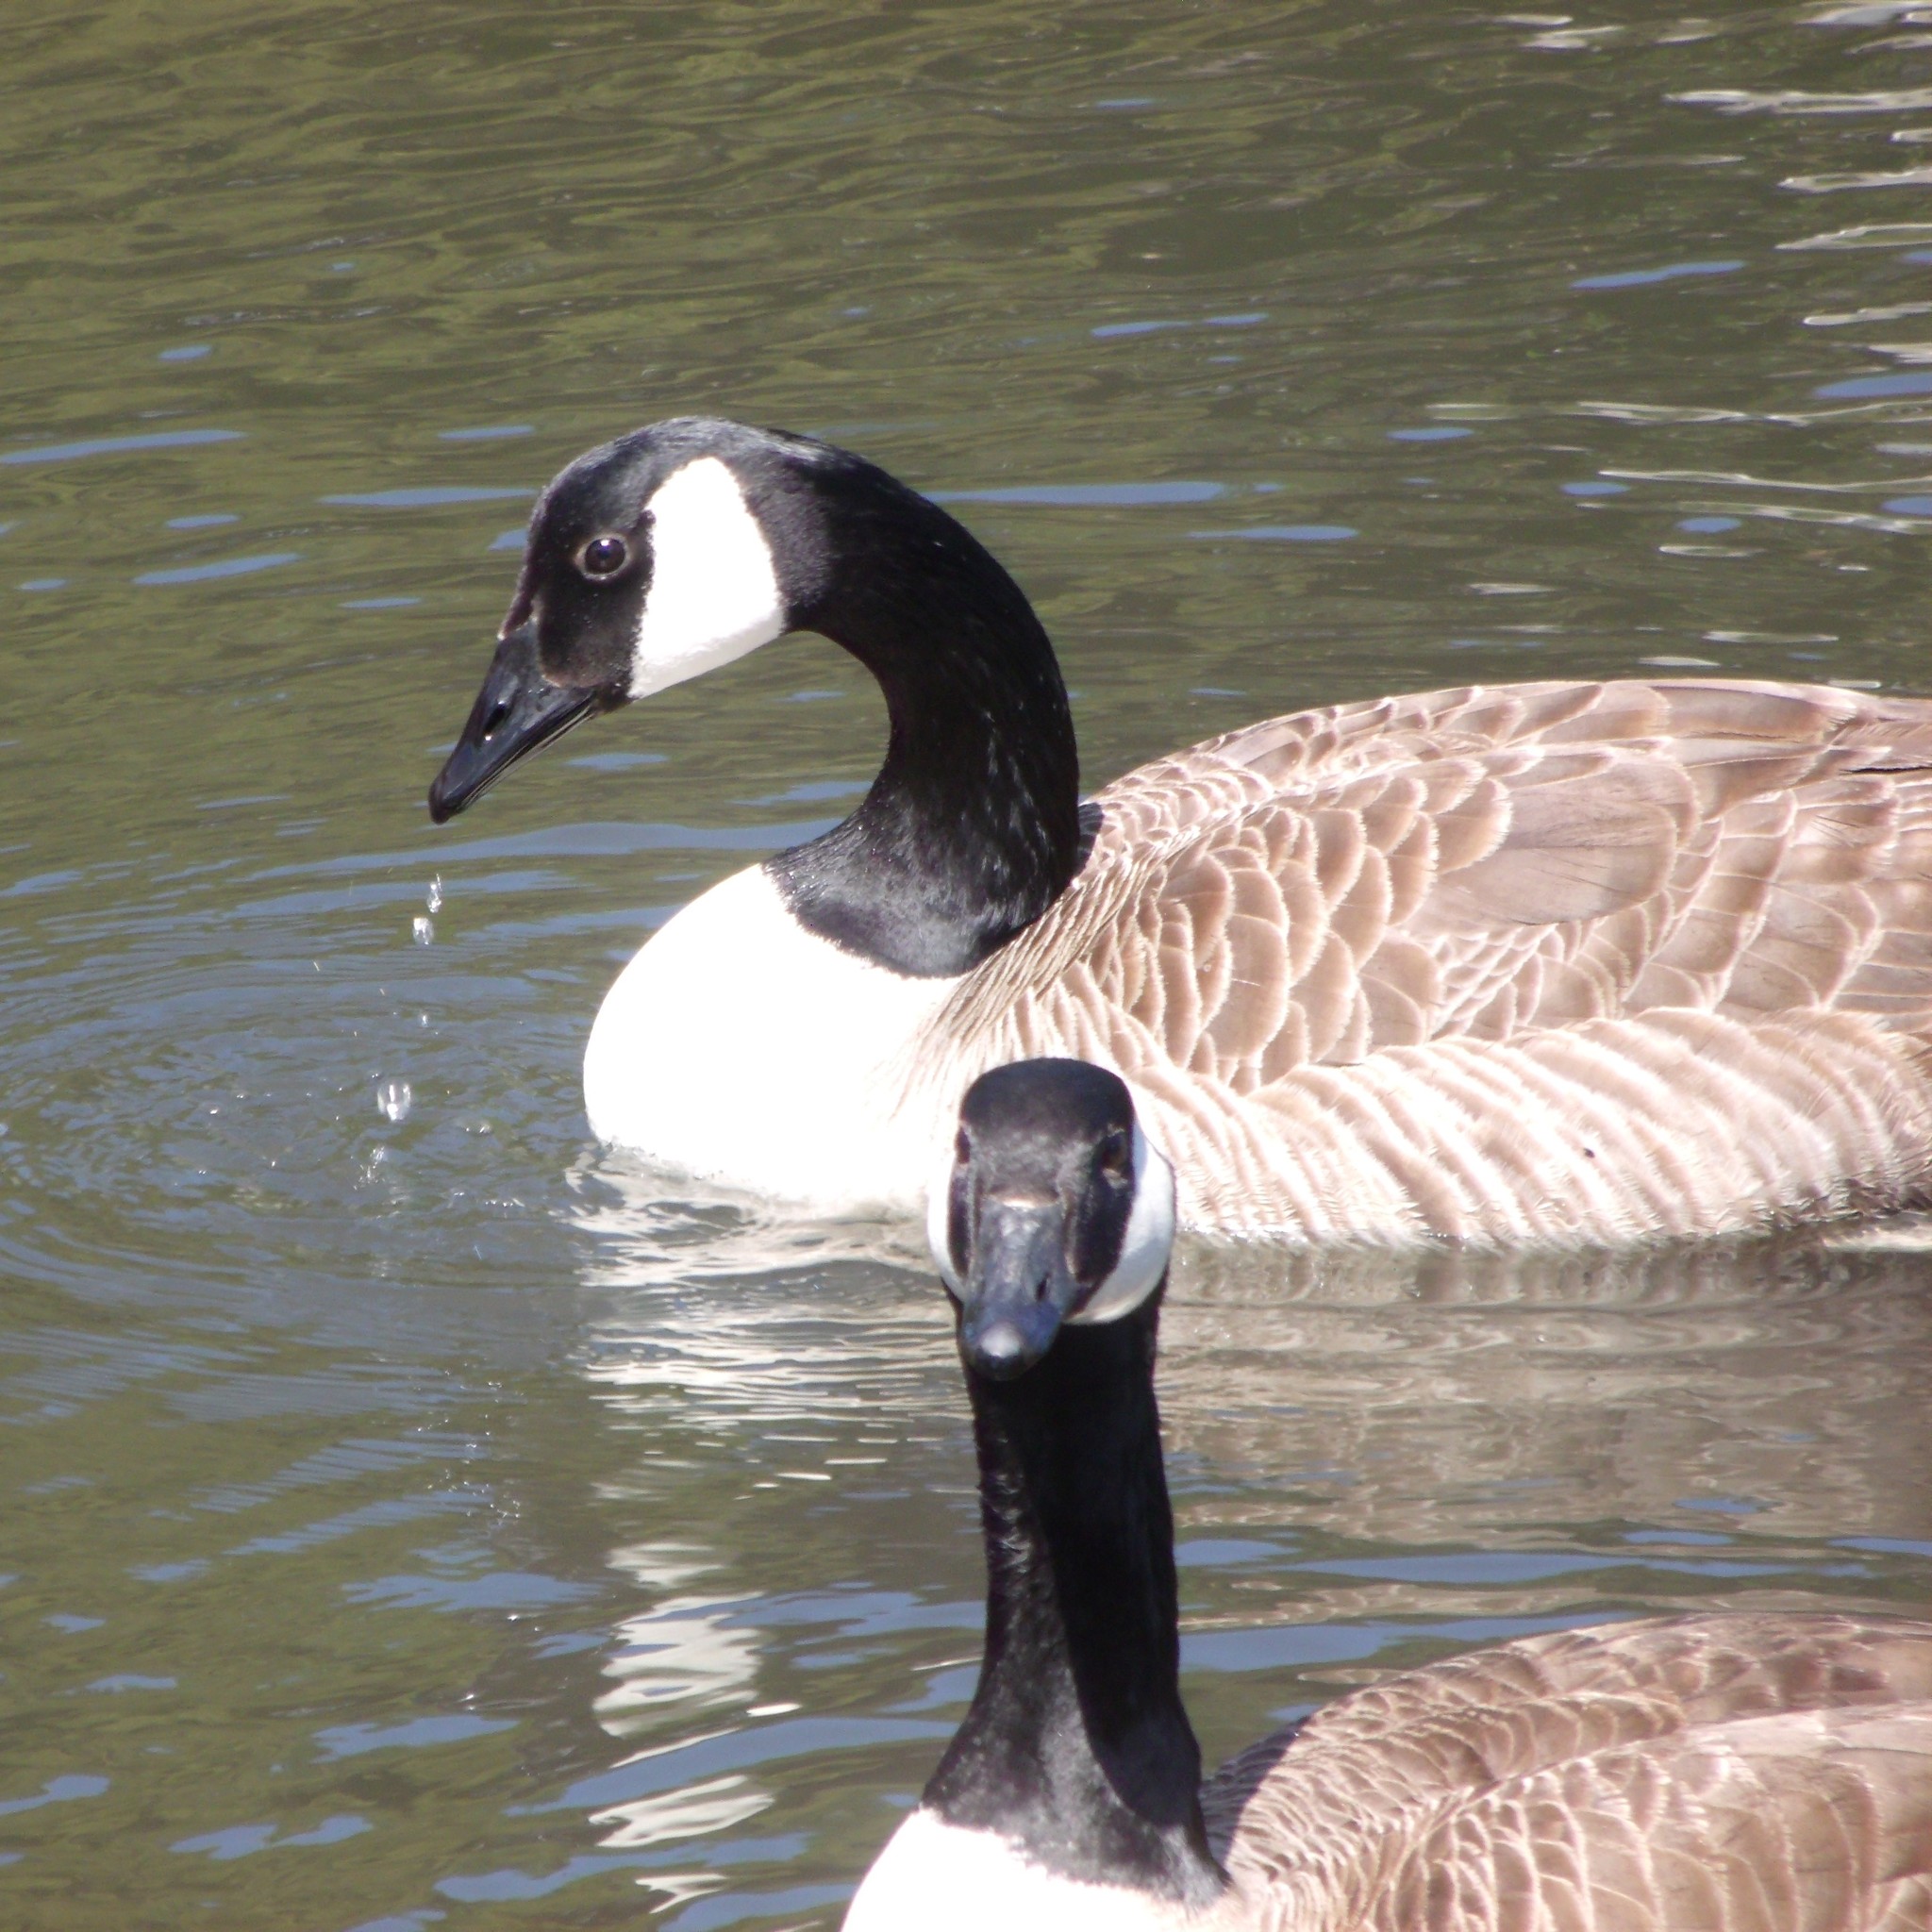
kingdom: Animalia
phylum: Chordata
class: Aves
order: Anseriformes
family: Anatidae
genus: Branta
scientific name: Branta canadensis
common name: Canada goose
